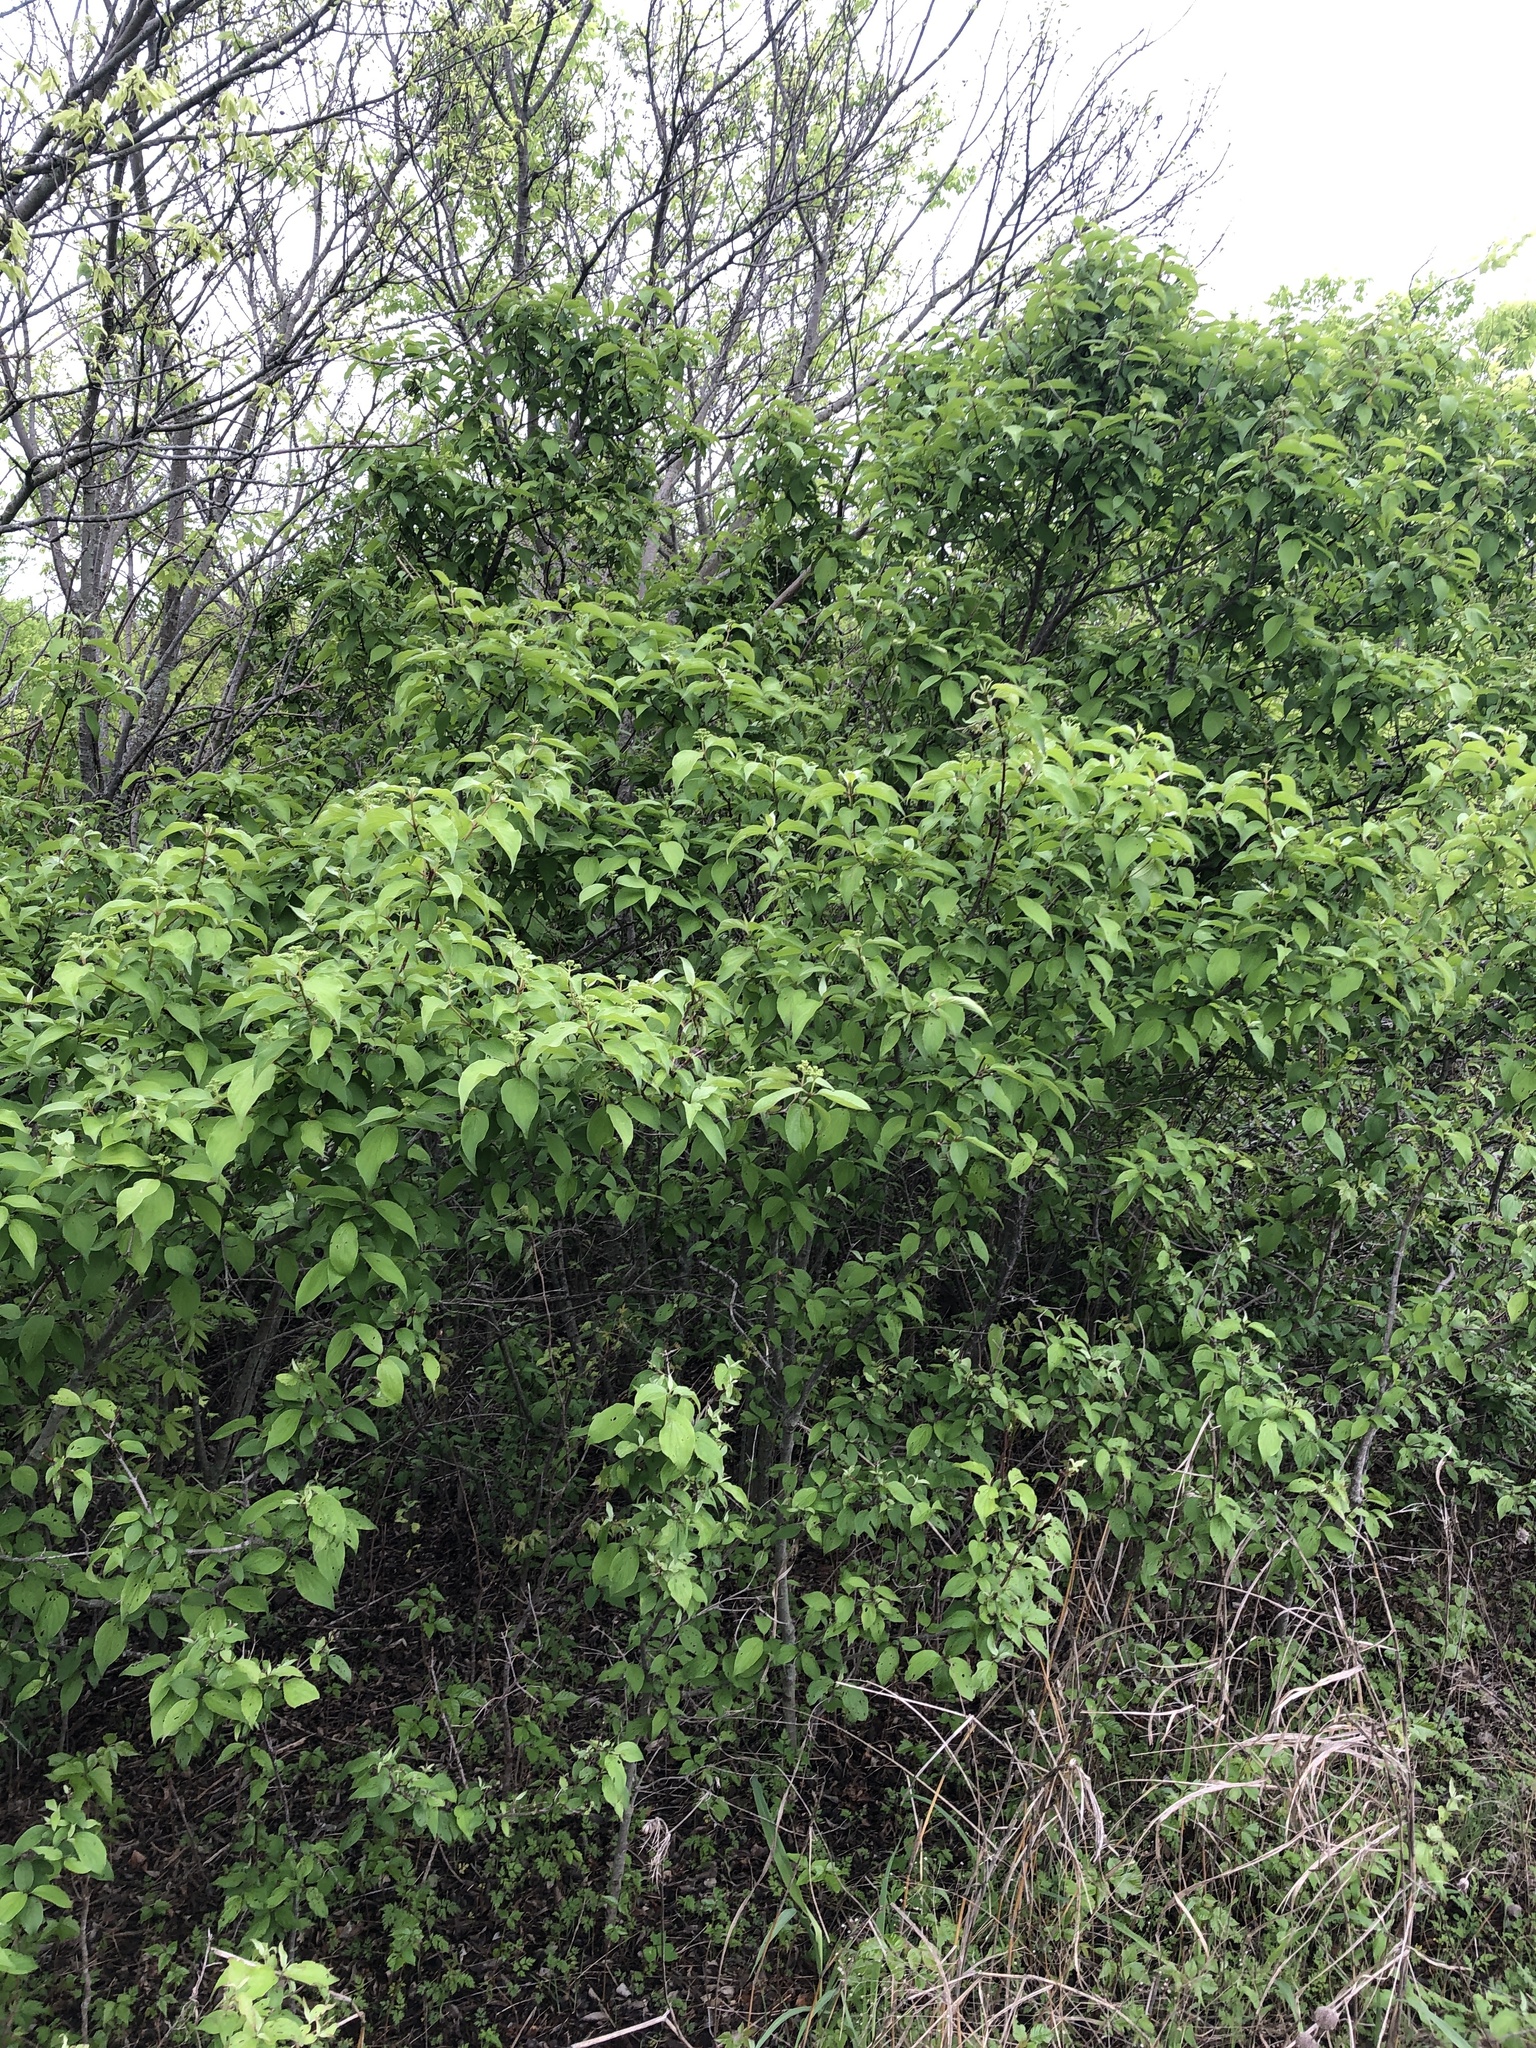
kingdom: Plantae
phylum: Tracheophyta
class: Magnoliopsida
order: Cornales
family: Cornaceae
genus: Cornus
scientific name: Cornus drummondii
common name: Rough-leaf dogwood
